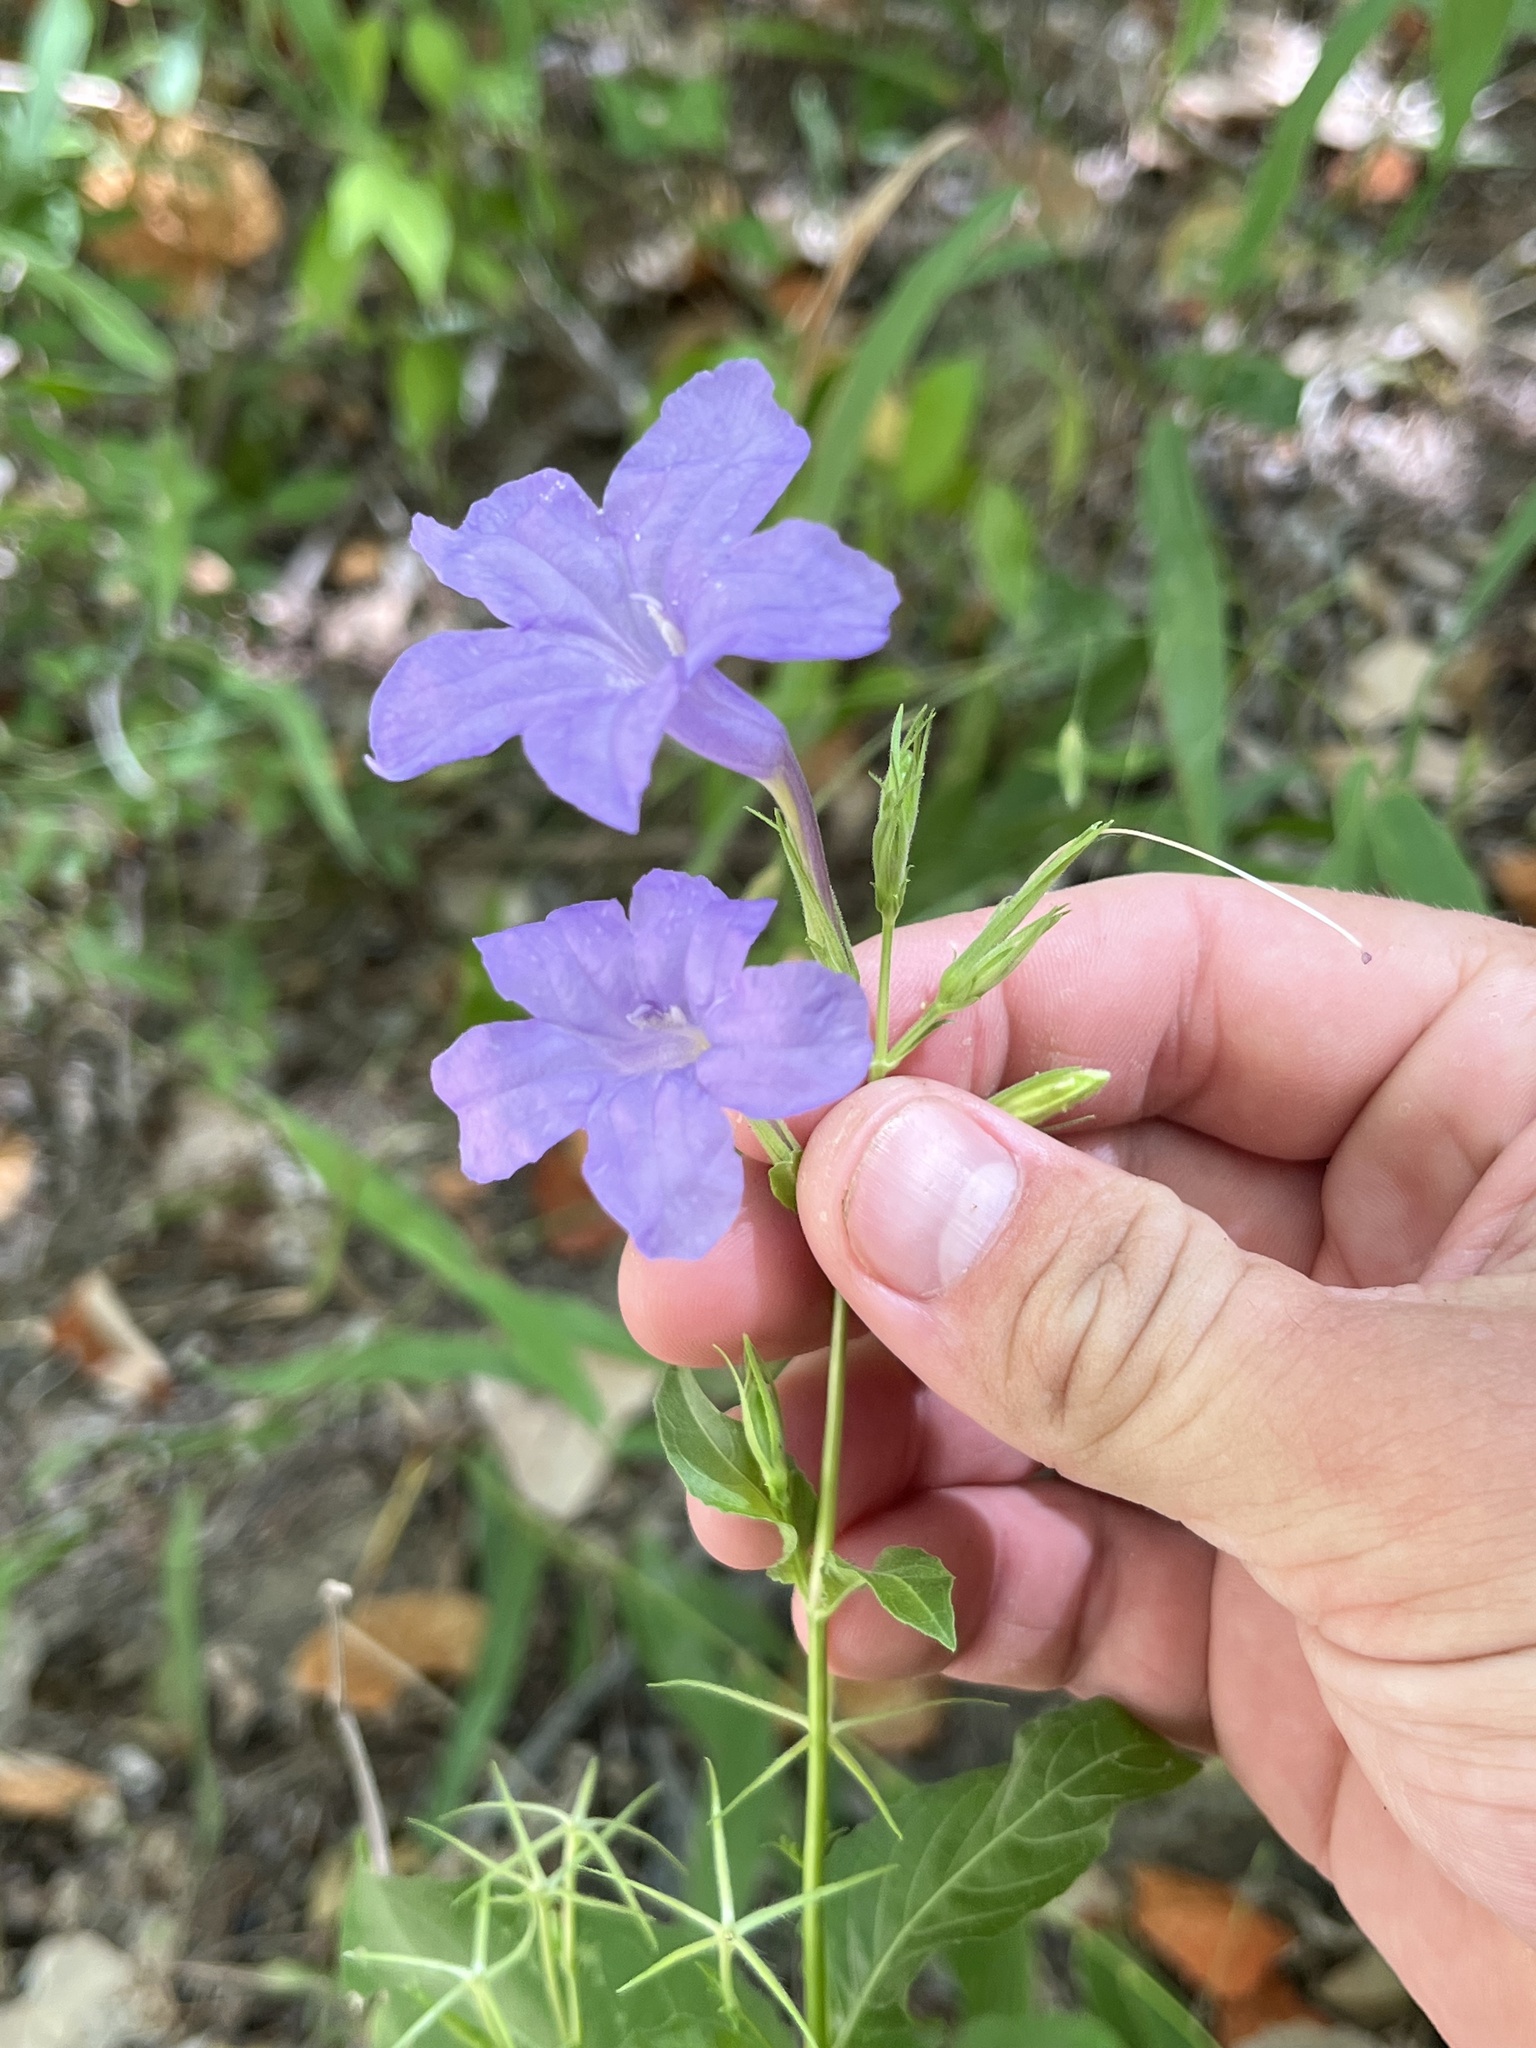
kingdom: Plantae
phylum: Tracheophyta
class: Magnoliopsida
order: Lamiales
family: Acanthaceae
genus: Ruellia
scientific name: Ruellia ciliatiflora
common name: Hairyflower wild petunia
